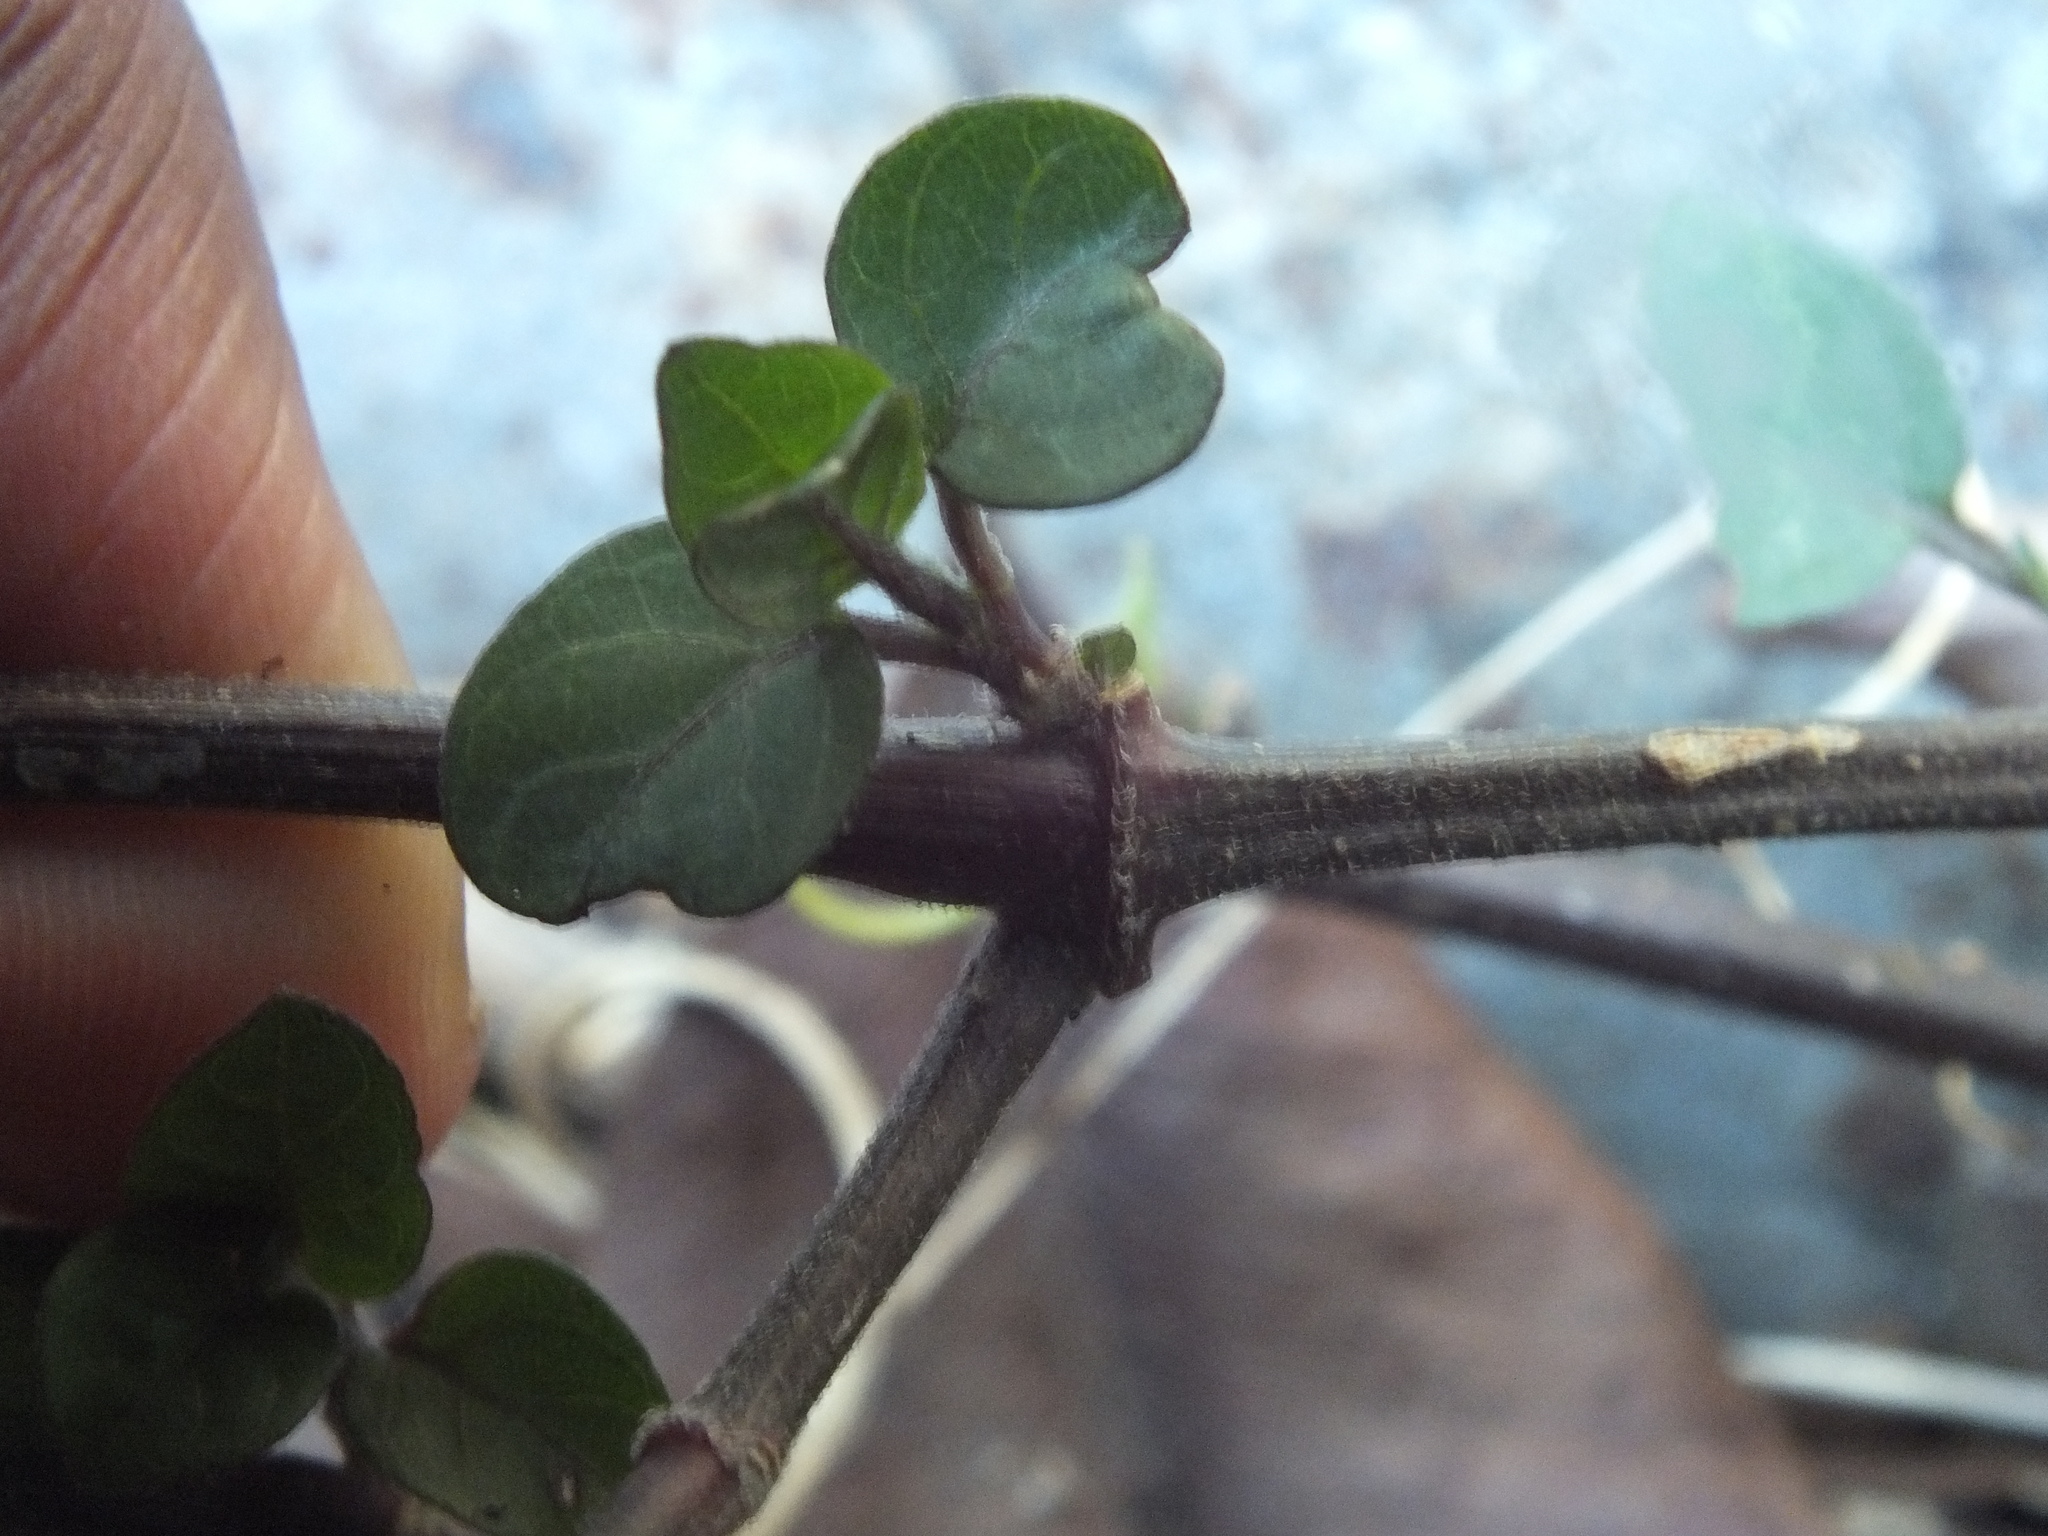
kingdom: Plantae
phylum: Tracheophyta
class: Magnoliopsida
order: Lamiales
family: Acanthaceae
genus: Asystasia
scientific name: Asystasia gangetica
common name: Chinese violet
